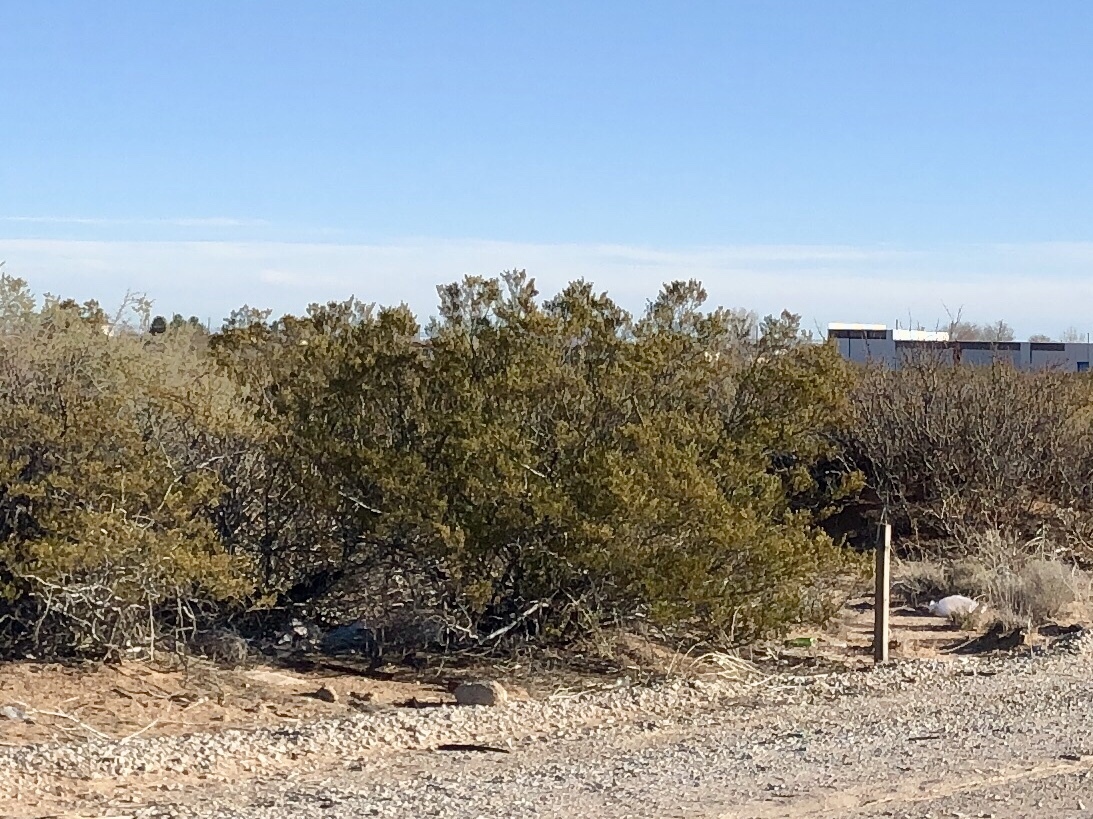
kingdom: Plantae
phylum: Tracheophyta
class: Magnoliopsida
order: Zygophyllales
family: Zygophyllaceae
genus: Larrea
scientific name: Larrea tridentata
